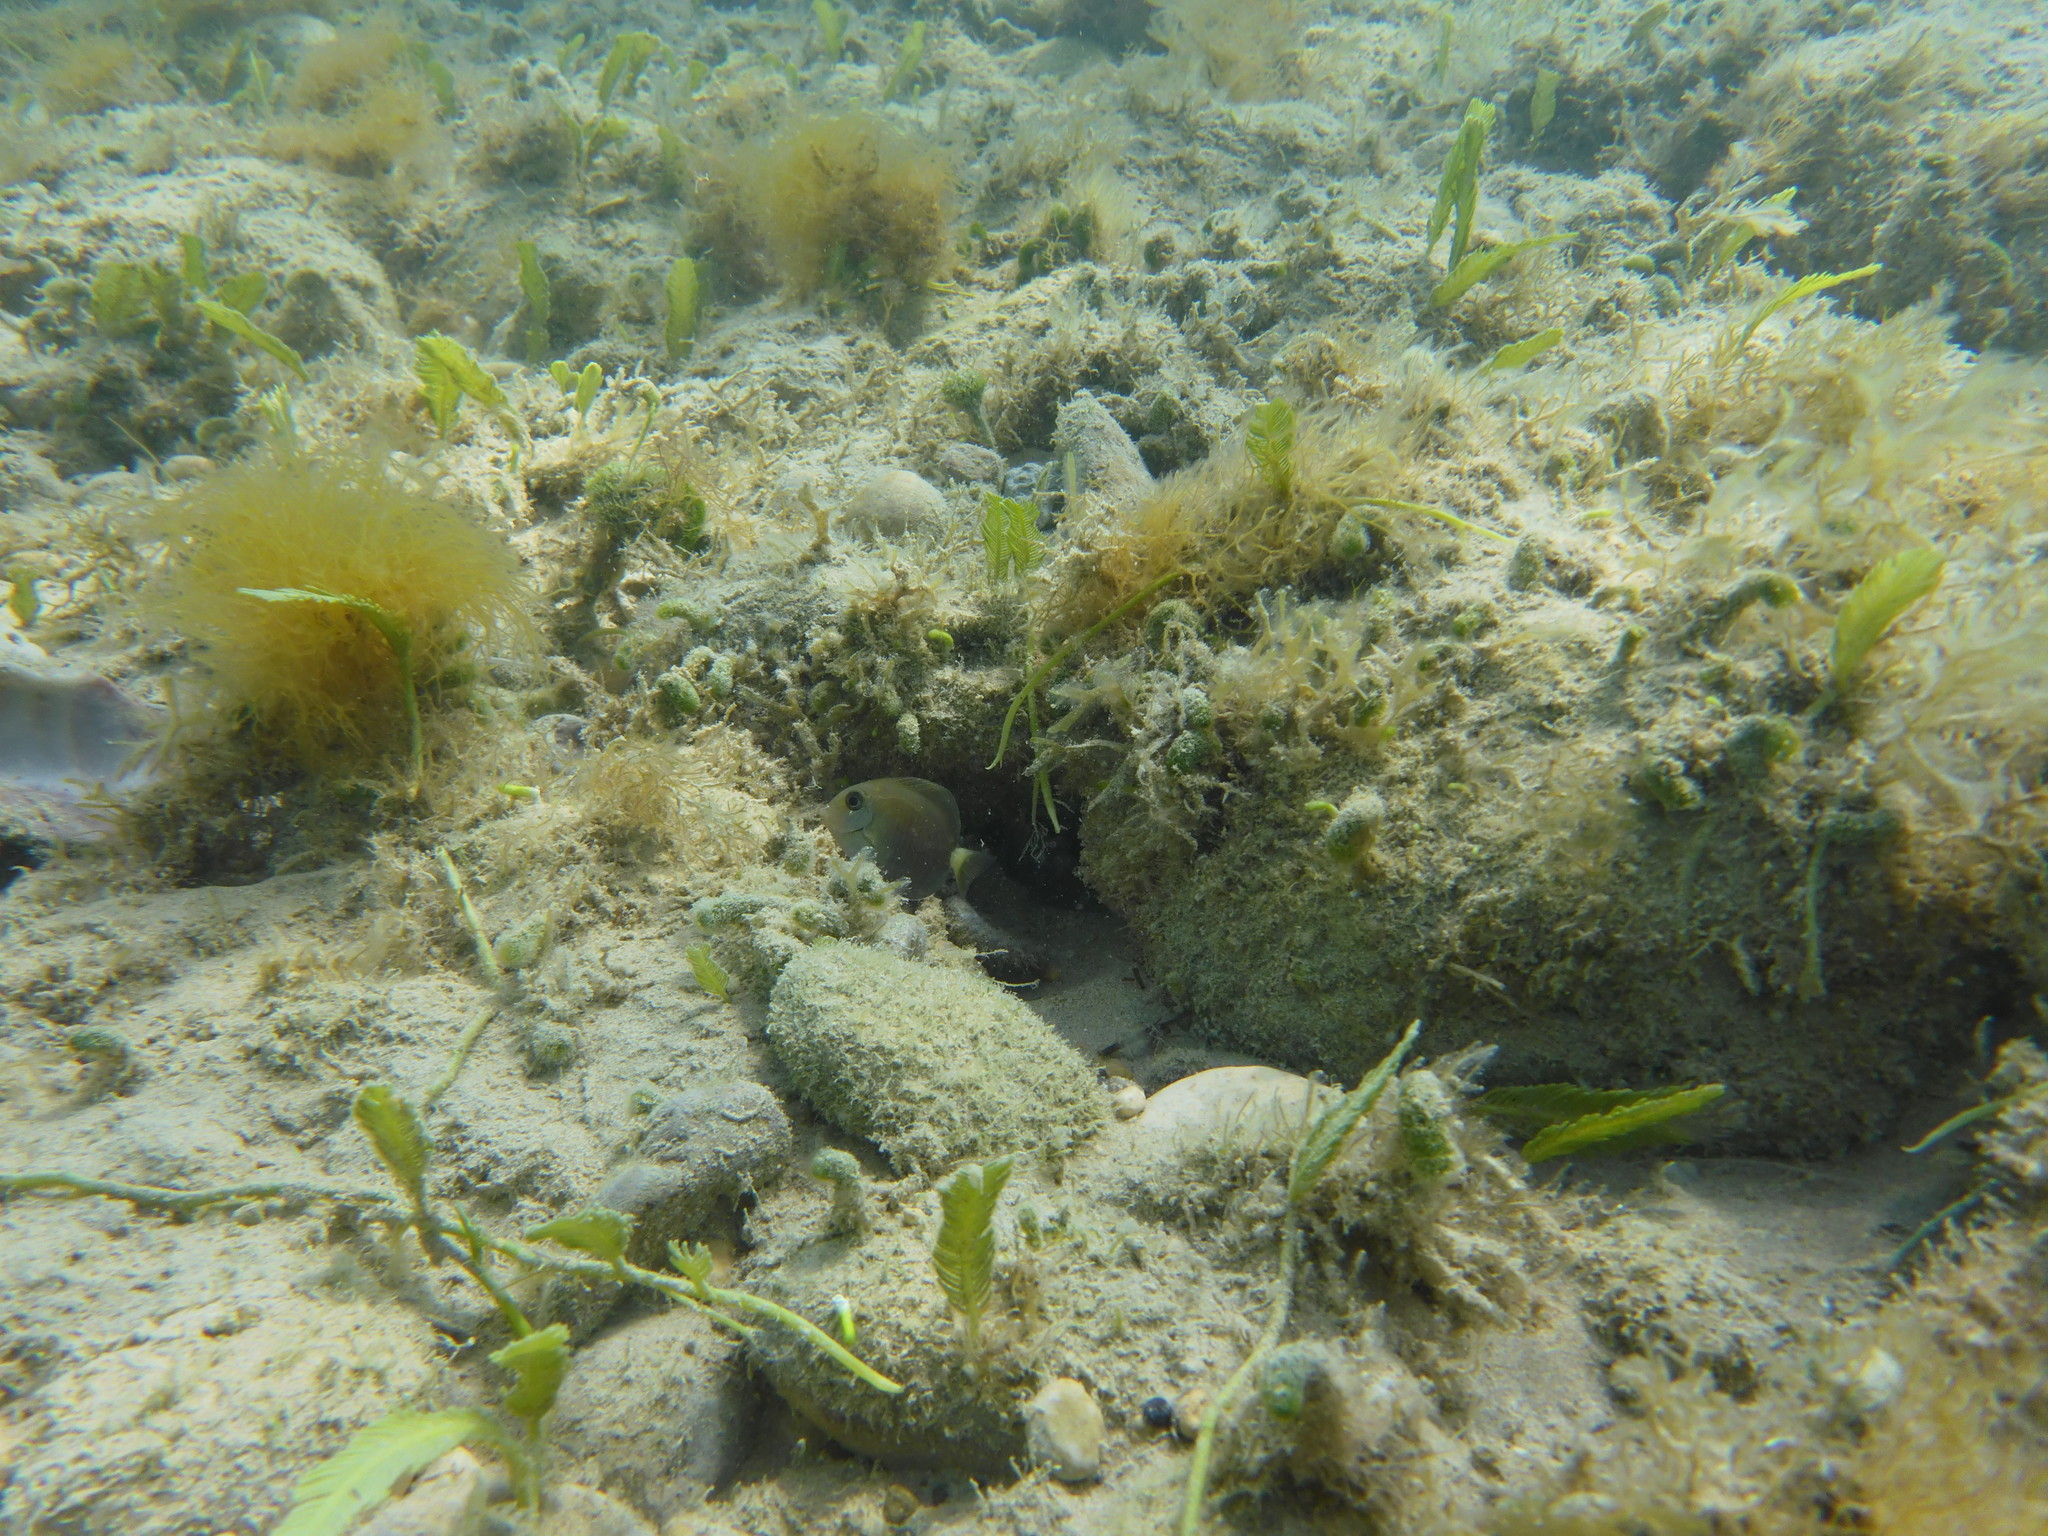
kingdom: Animalia
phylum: Chordata
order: Perciformes
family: Acanthuridae
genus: Acanthurus
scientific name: Acanthurus chirurgus
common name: Doctorfish
